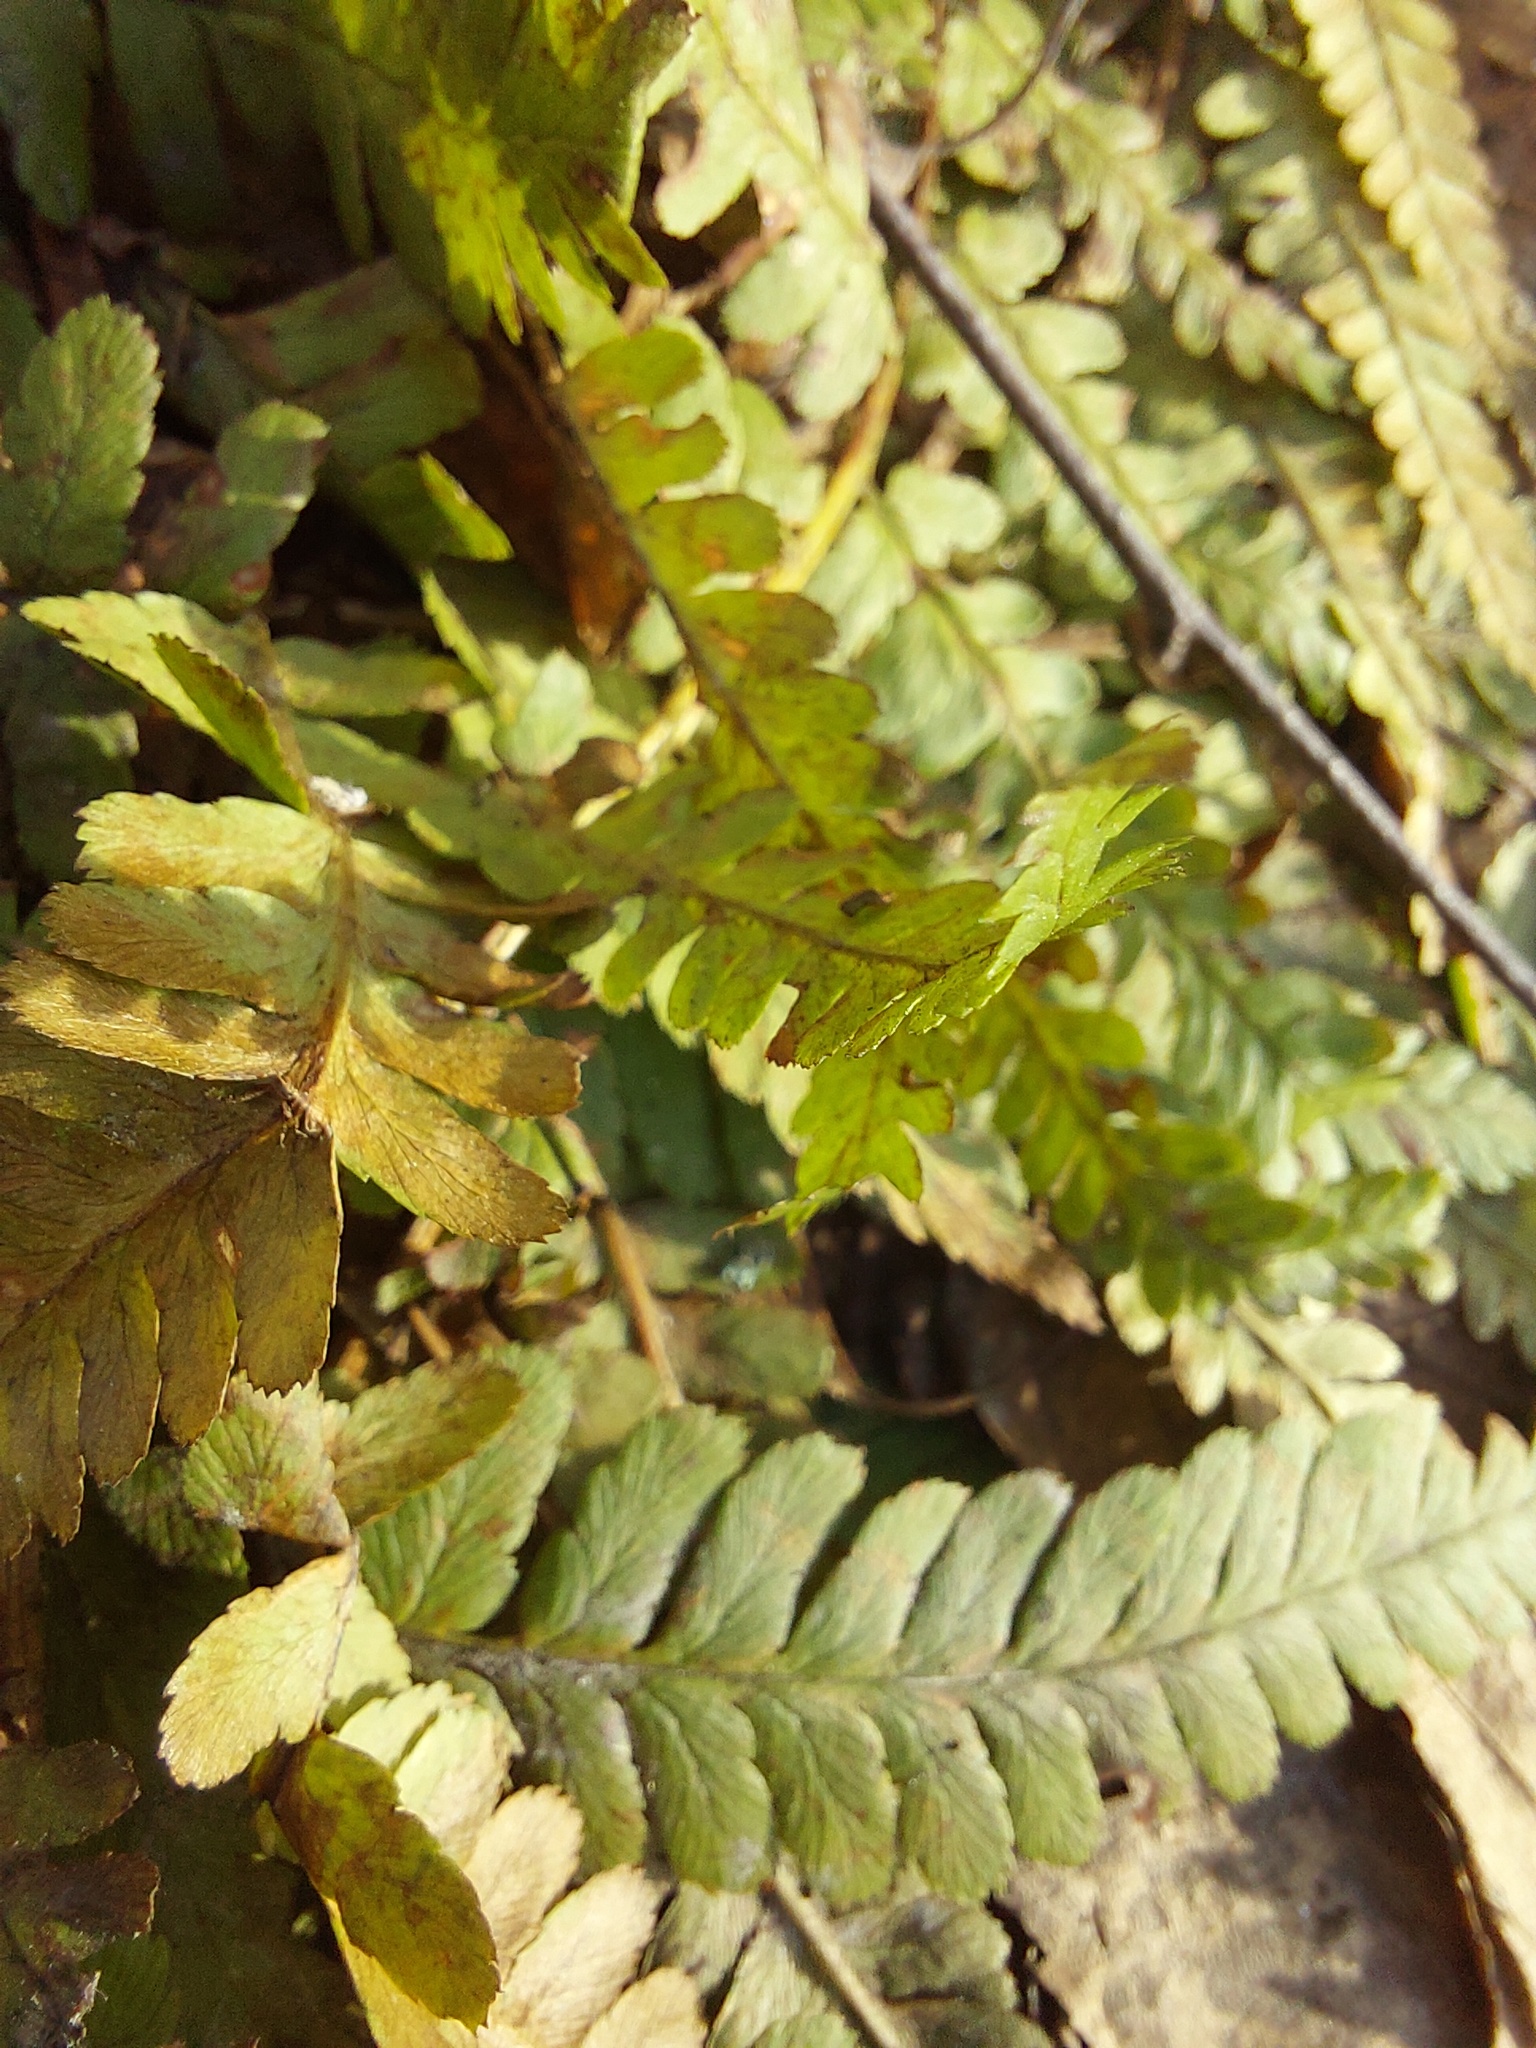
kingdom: Plantae
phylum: Tracheophyta
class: Polypodiopsida
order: Polypodiales
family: Dryopteridaceae
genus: Dryopteris
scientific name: Dryopteris filix-mas
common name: Male fern
